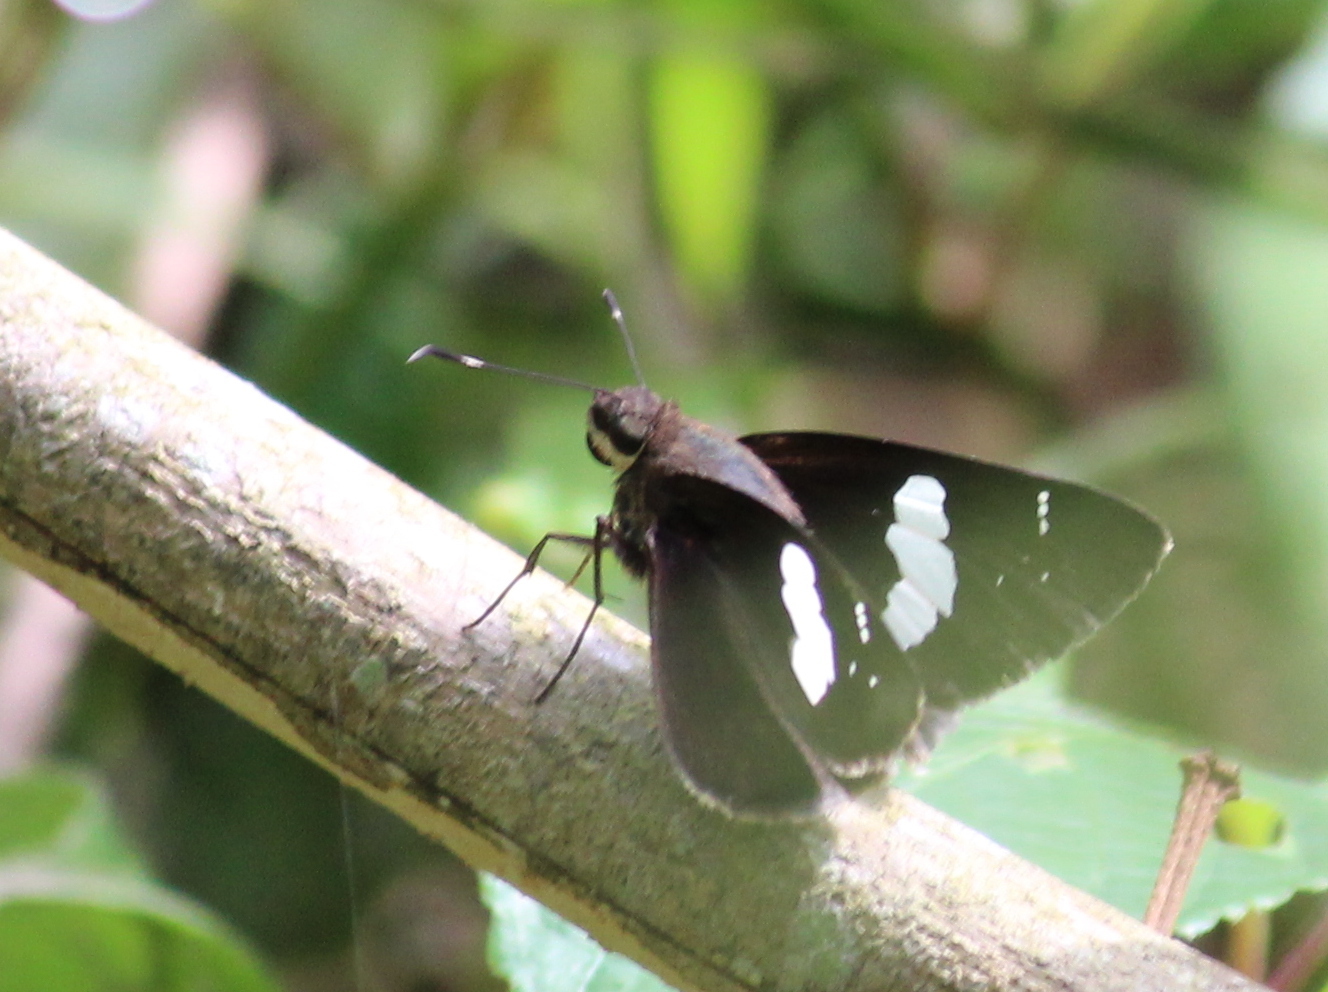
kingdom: Animalia
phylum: Arthropoda
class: Insecta
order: Lepidoptera
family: Hesperiidae
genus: Notocrypta
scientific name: Notocrypta curvifascia
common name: Restricted demon
